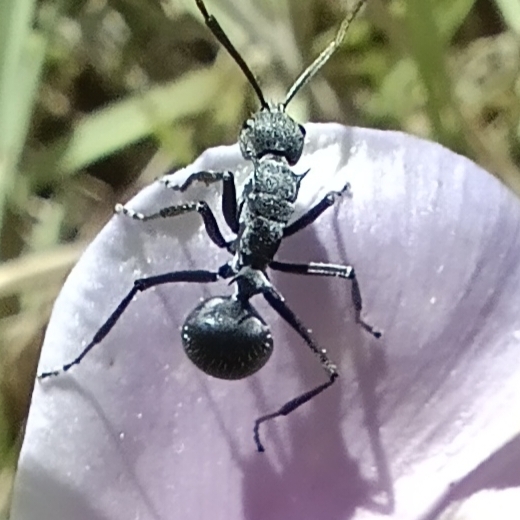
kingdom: Animalia
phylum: Arthropoda
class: Insecta
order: Hymenoptera
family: Formicidae
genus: Polyrhachis
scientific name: Polyrhachis schistacea
